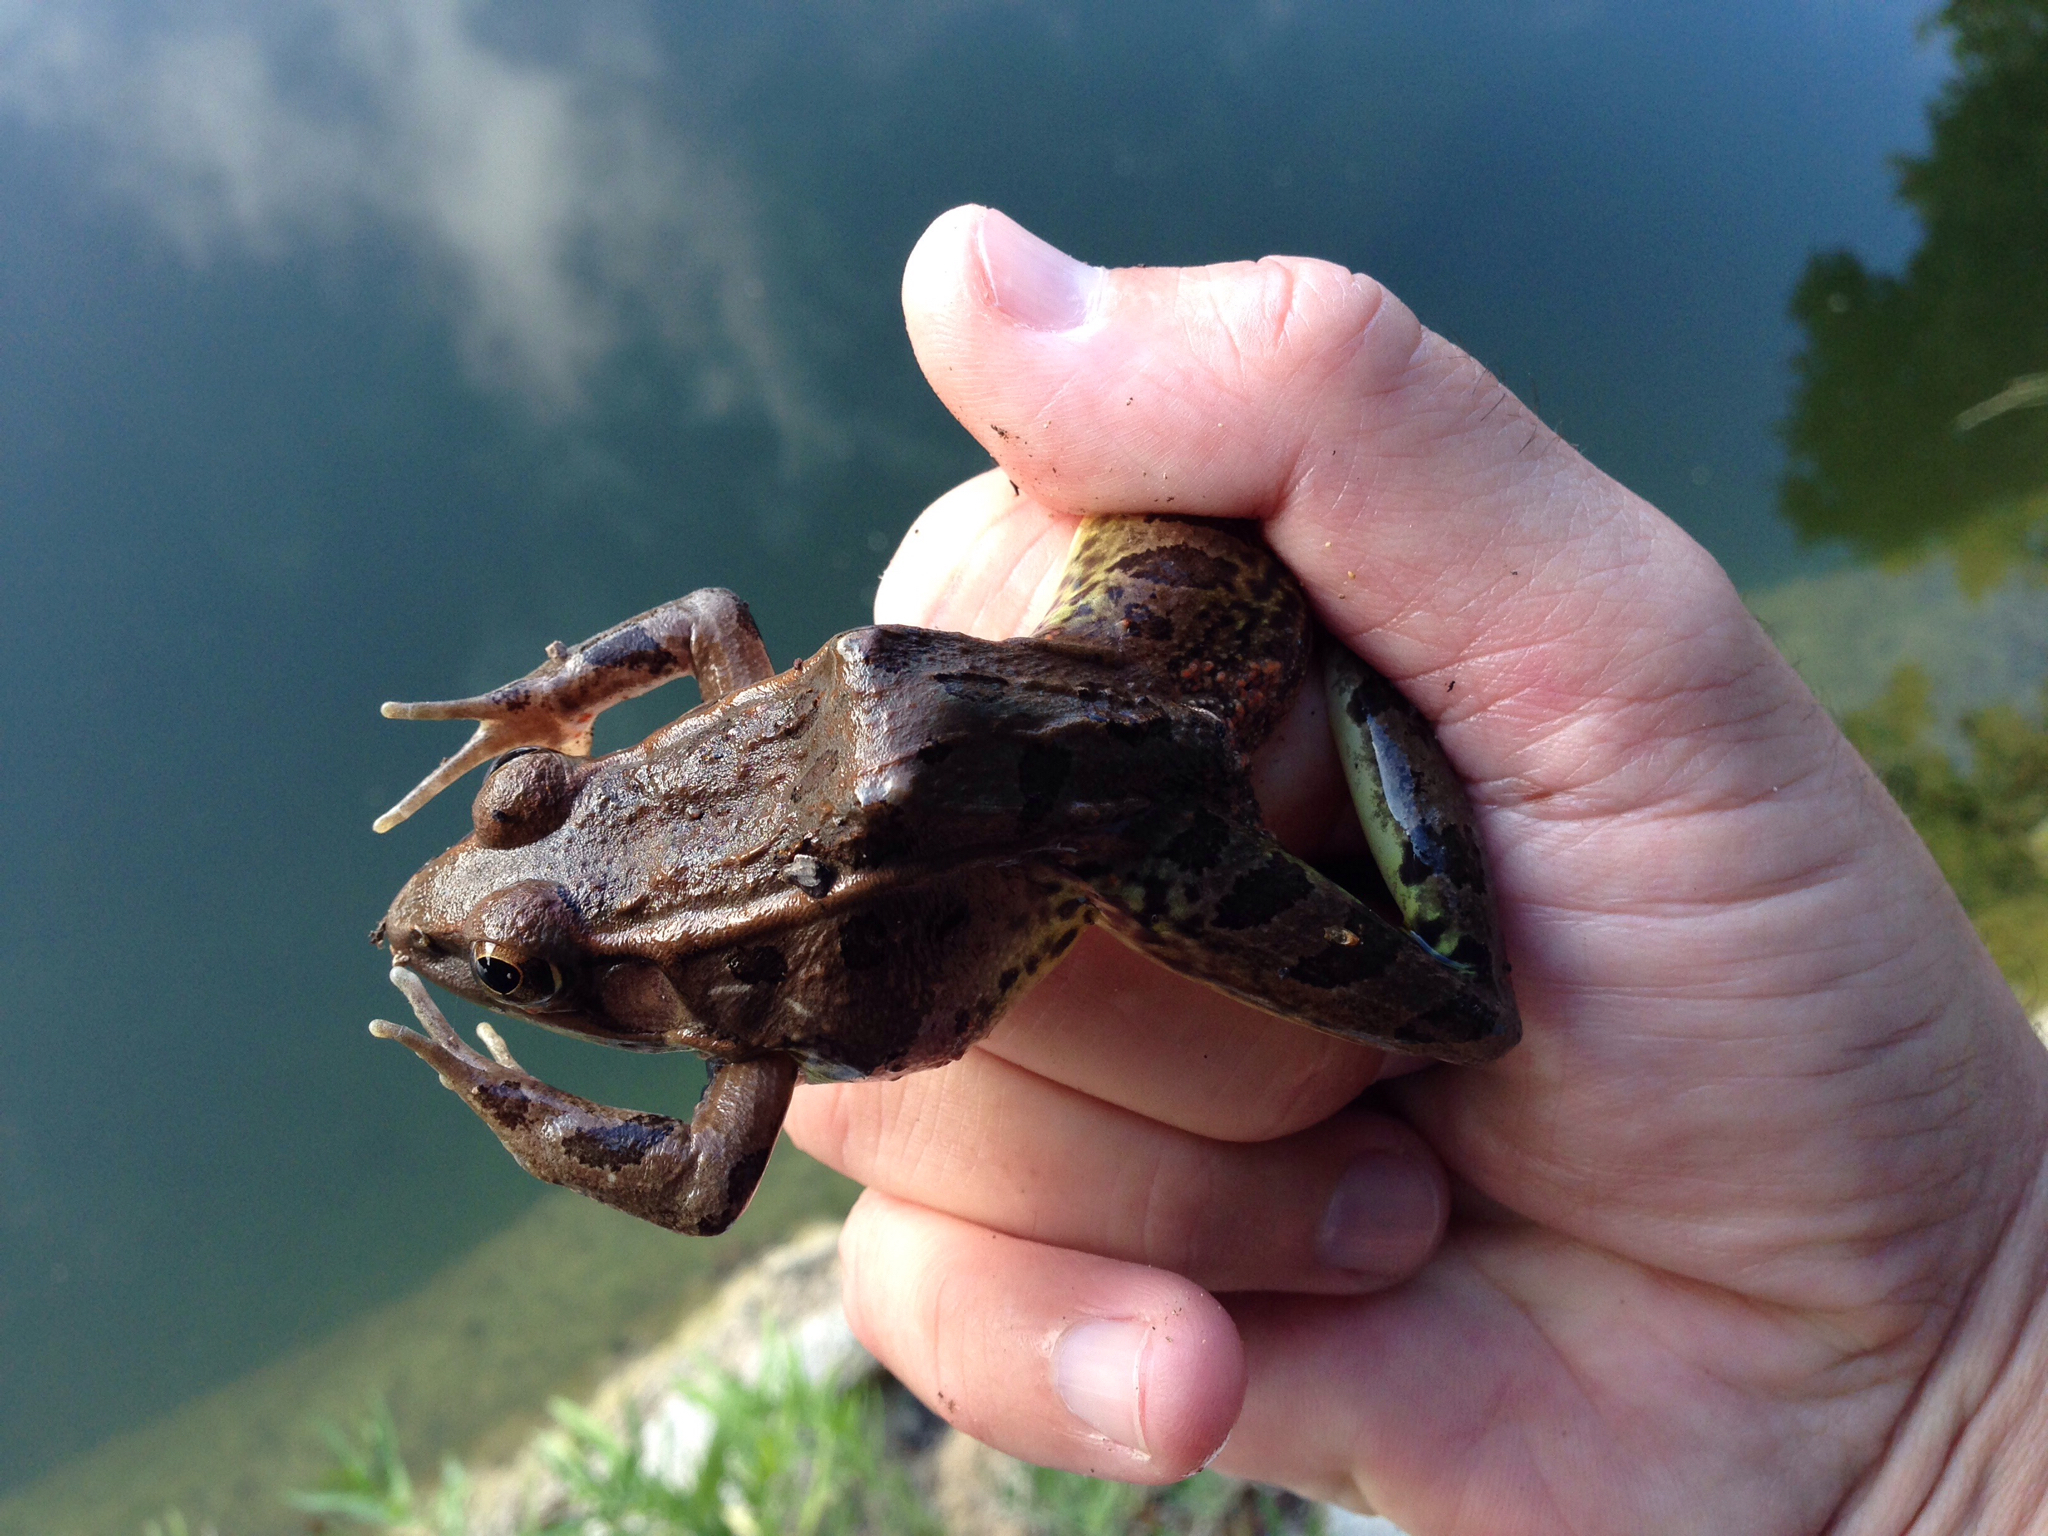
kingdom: Animalia
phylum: Chordata
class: Amphibia
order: Anura
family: Ranidae
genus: Lithobates
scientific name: Lithobates berlandieri
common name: Rio grande leopard frog
